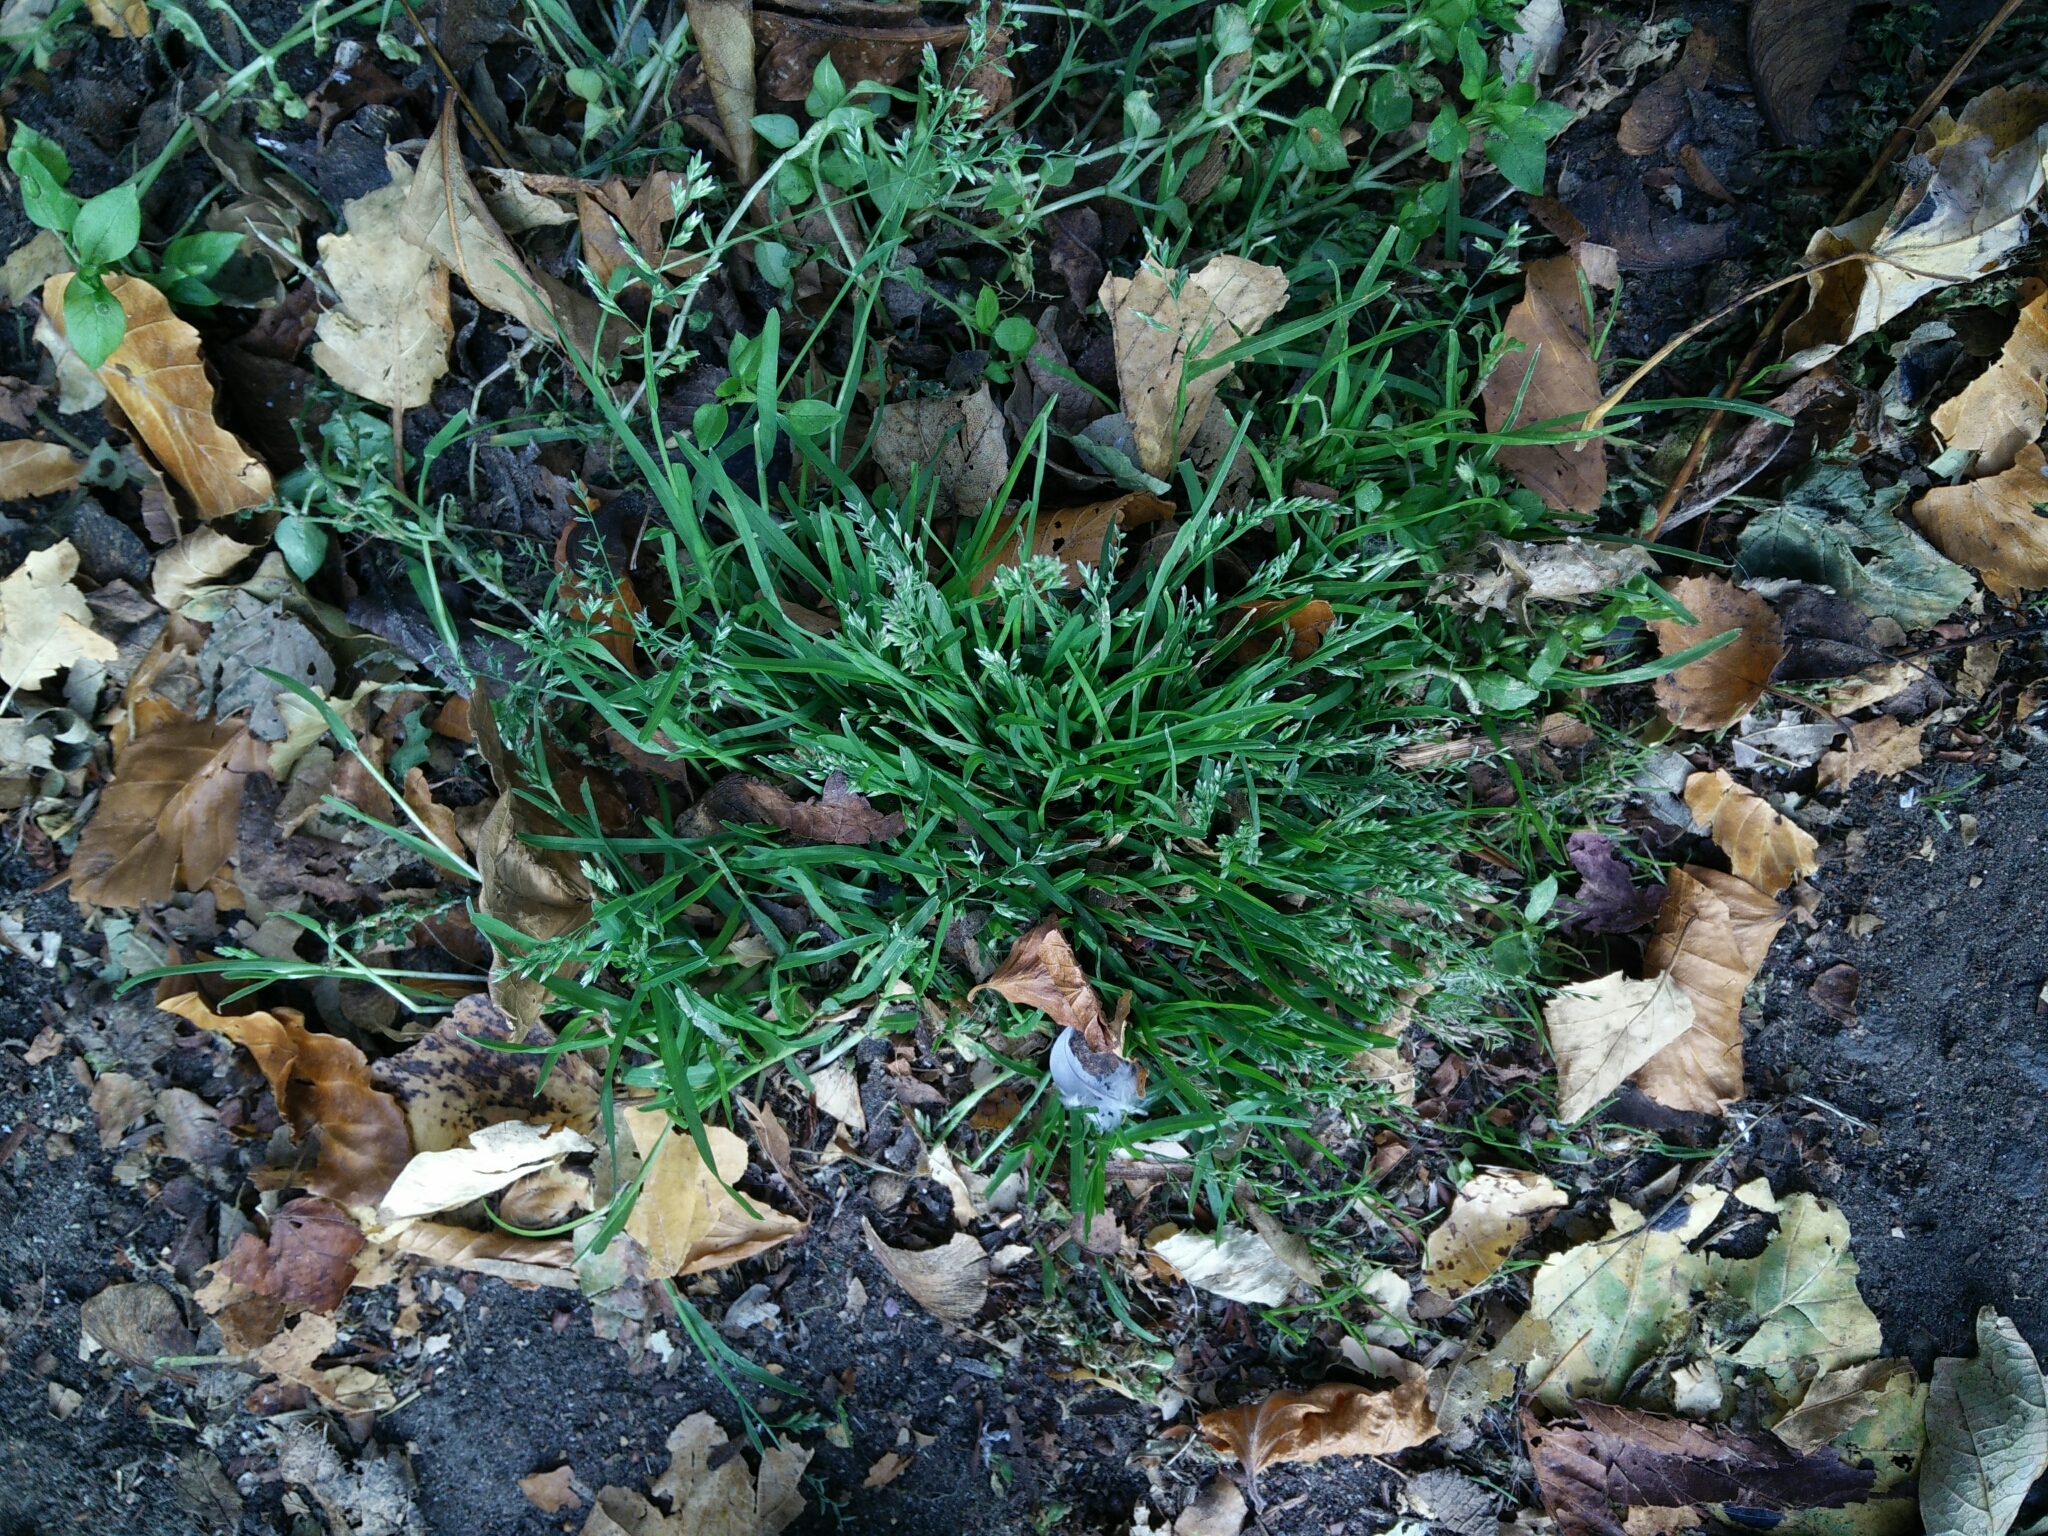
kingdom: Plantae
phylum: Tracheophyta
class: Liliopsida
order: Poales
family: Poaceae
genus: Poa
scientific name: Poa annua
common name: Annual bluegrass
